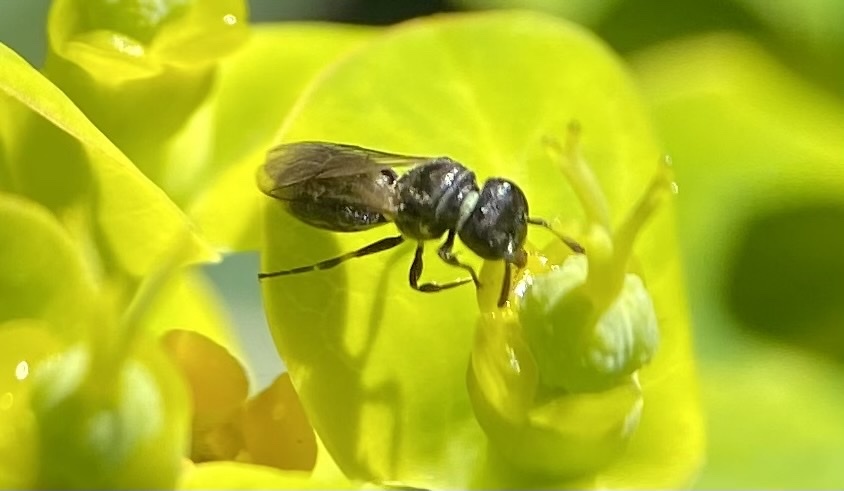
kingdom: Animalia
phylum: Arthropoda
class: Insecta
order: Hymenoptera
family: Colletidae
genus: Hylaeus
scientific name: Hylaeus mesillae
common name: Mesilla masked bee
